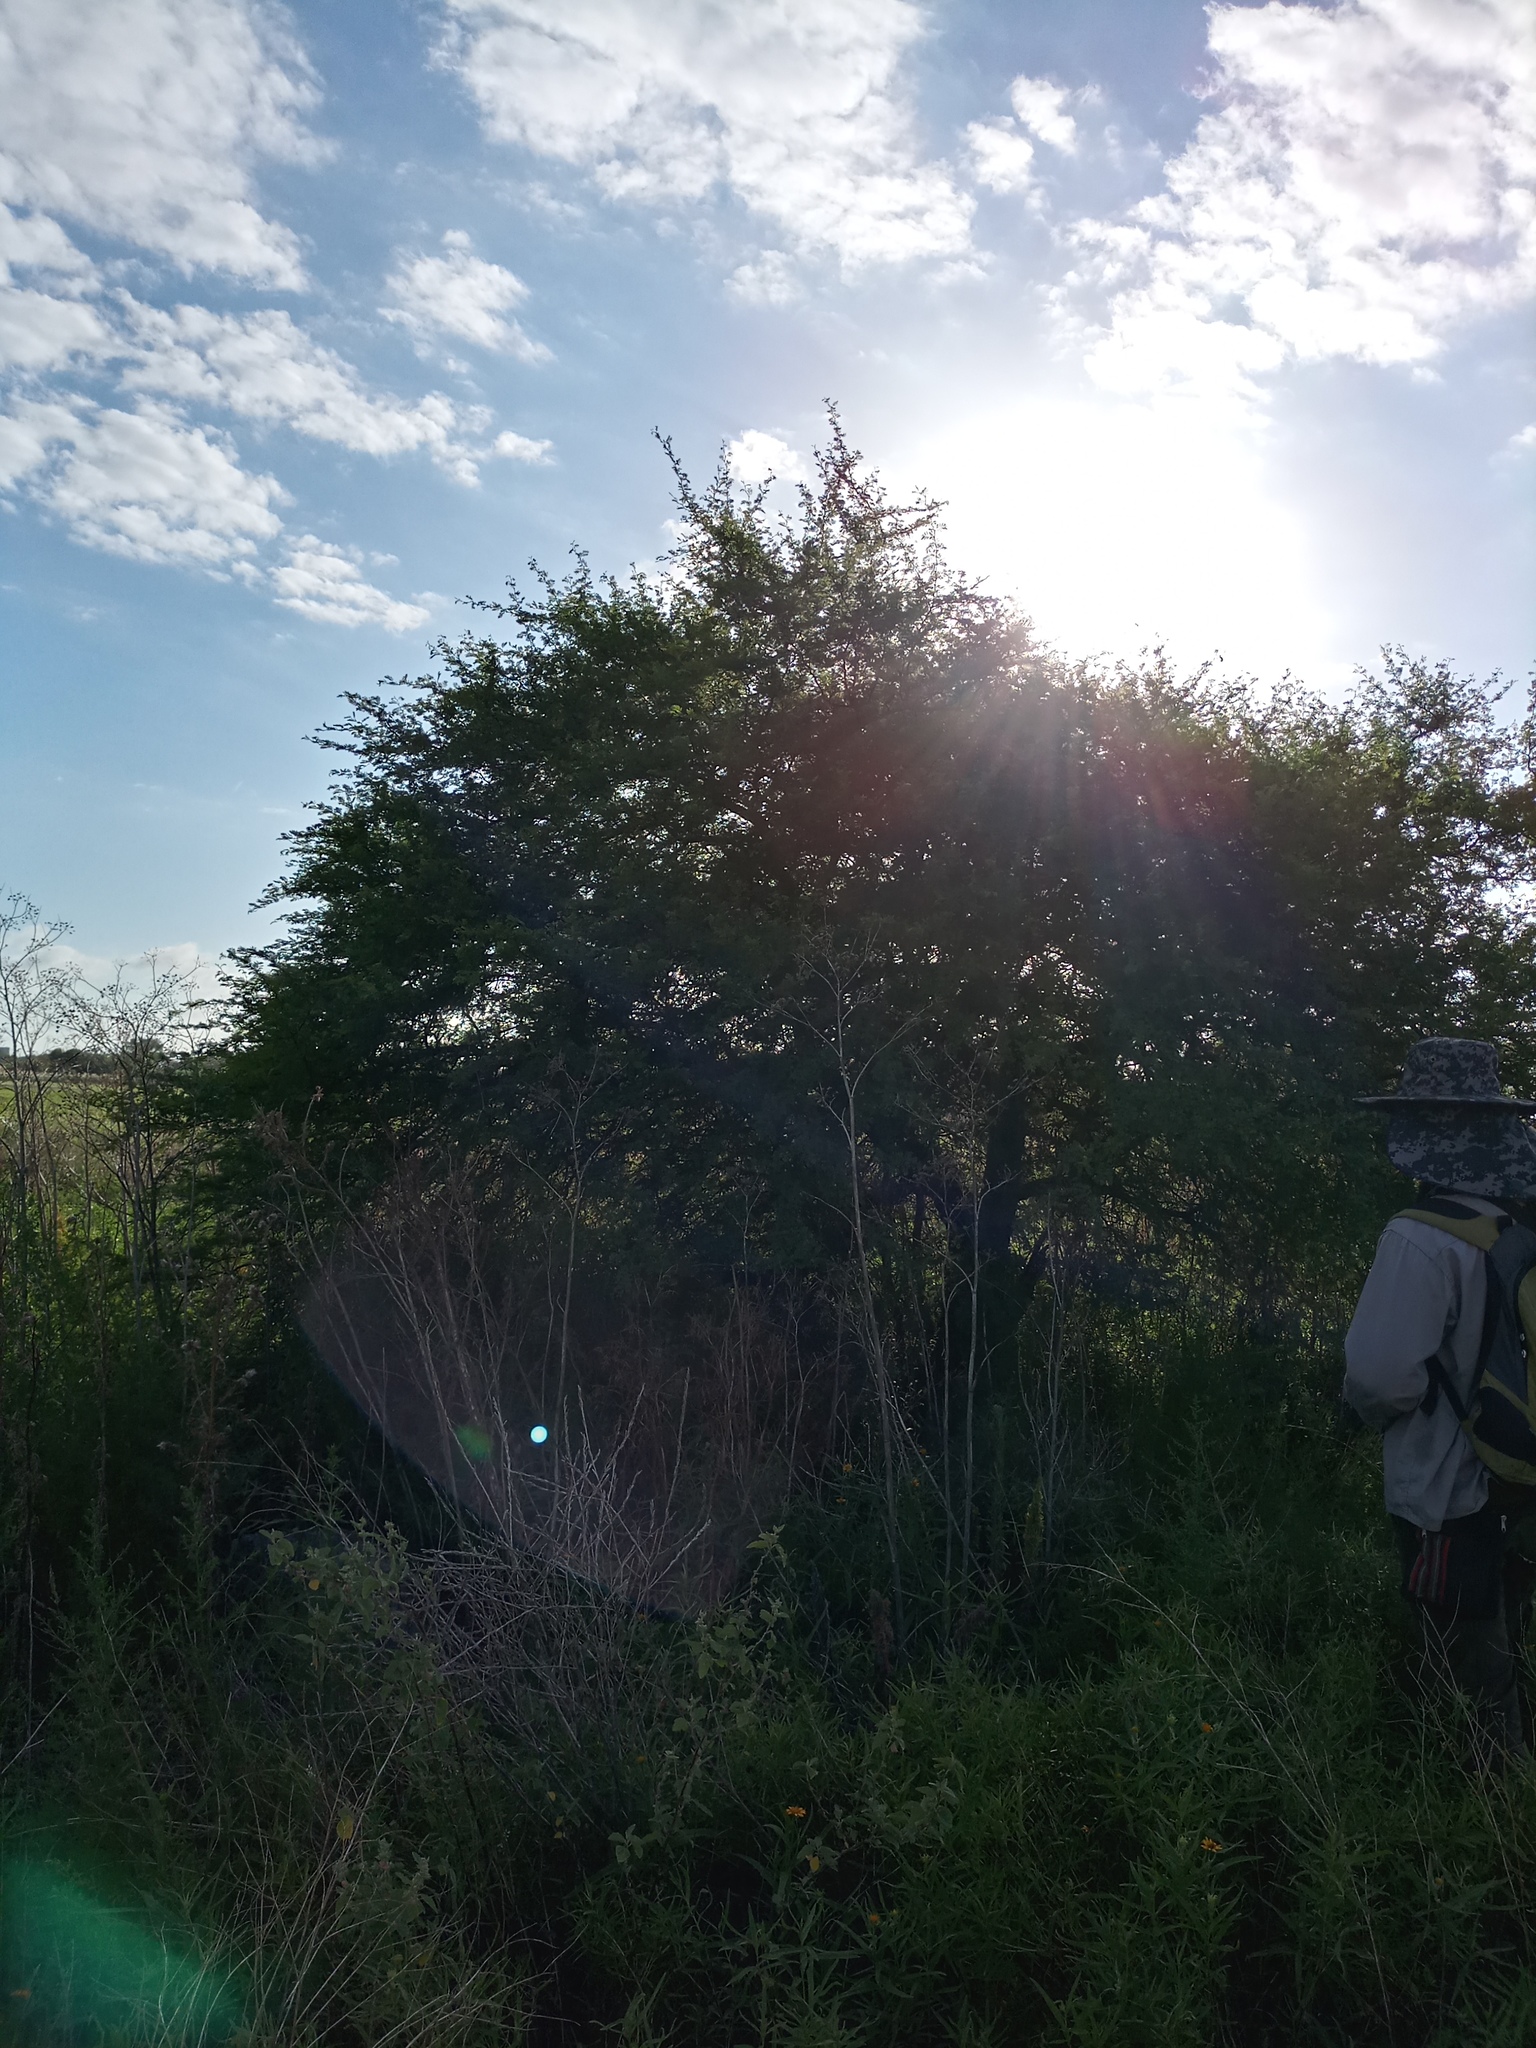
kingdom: Plantae
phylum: Tracheophyta
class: Magnoliopsida
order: Fabales
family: Fabaceae
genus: Vachellia
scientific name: Vachellia caven
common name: Roman cassie
